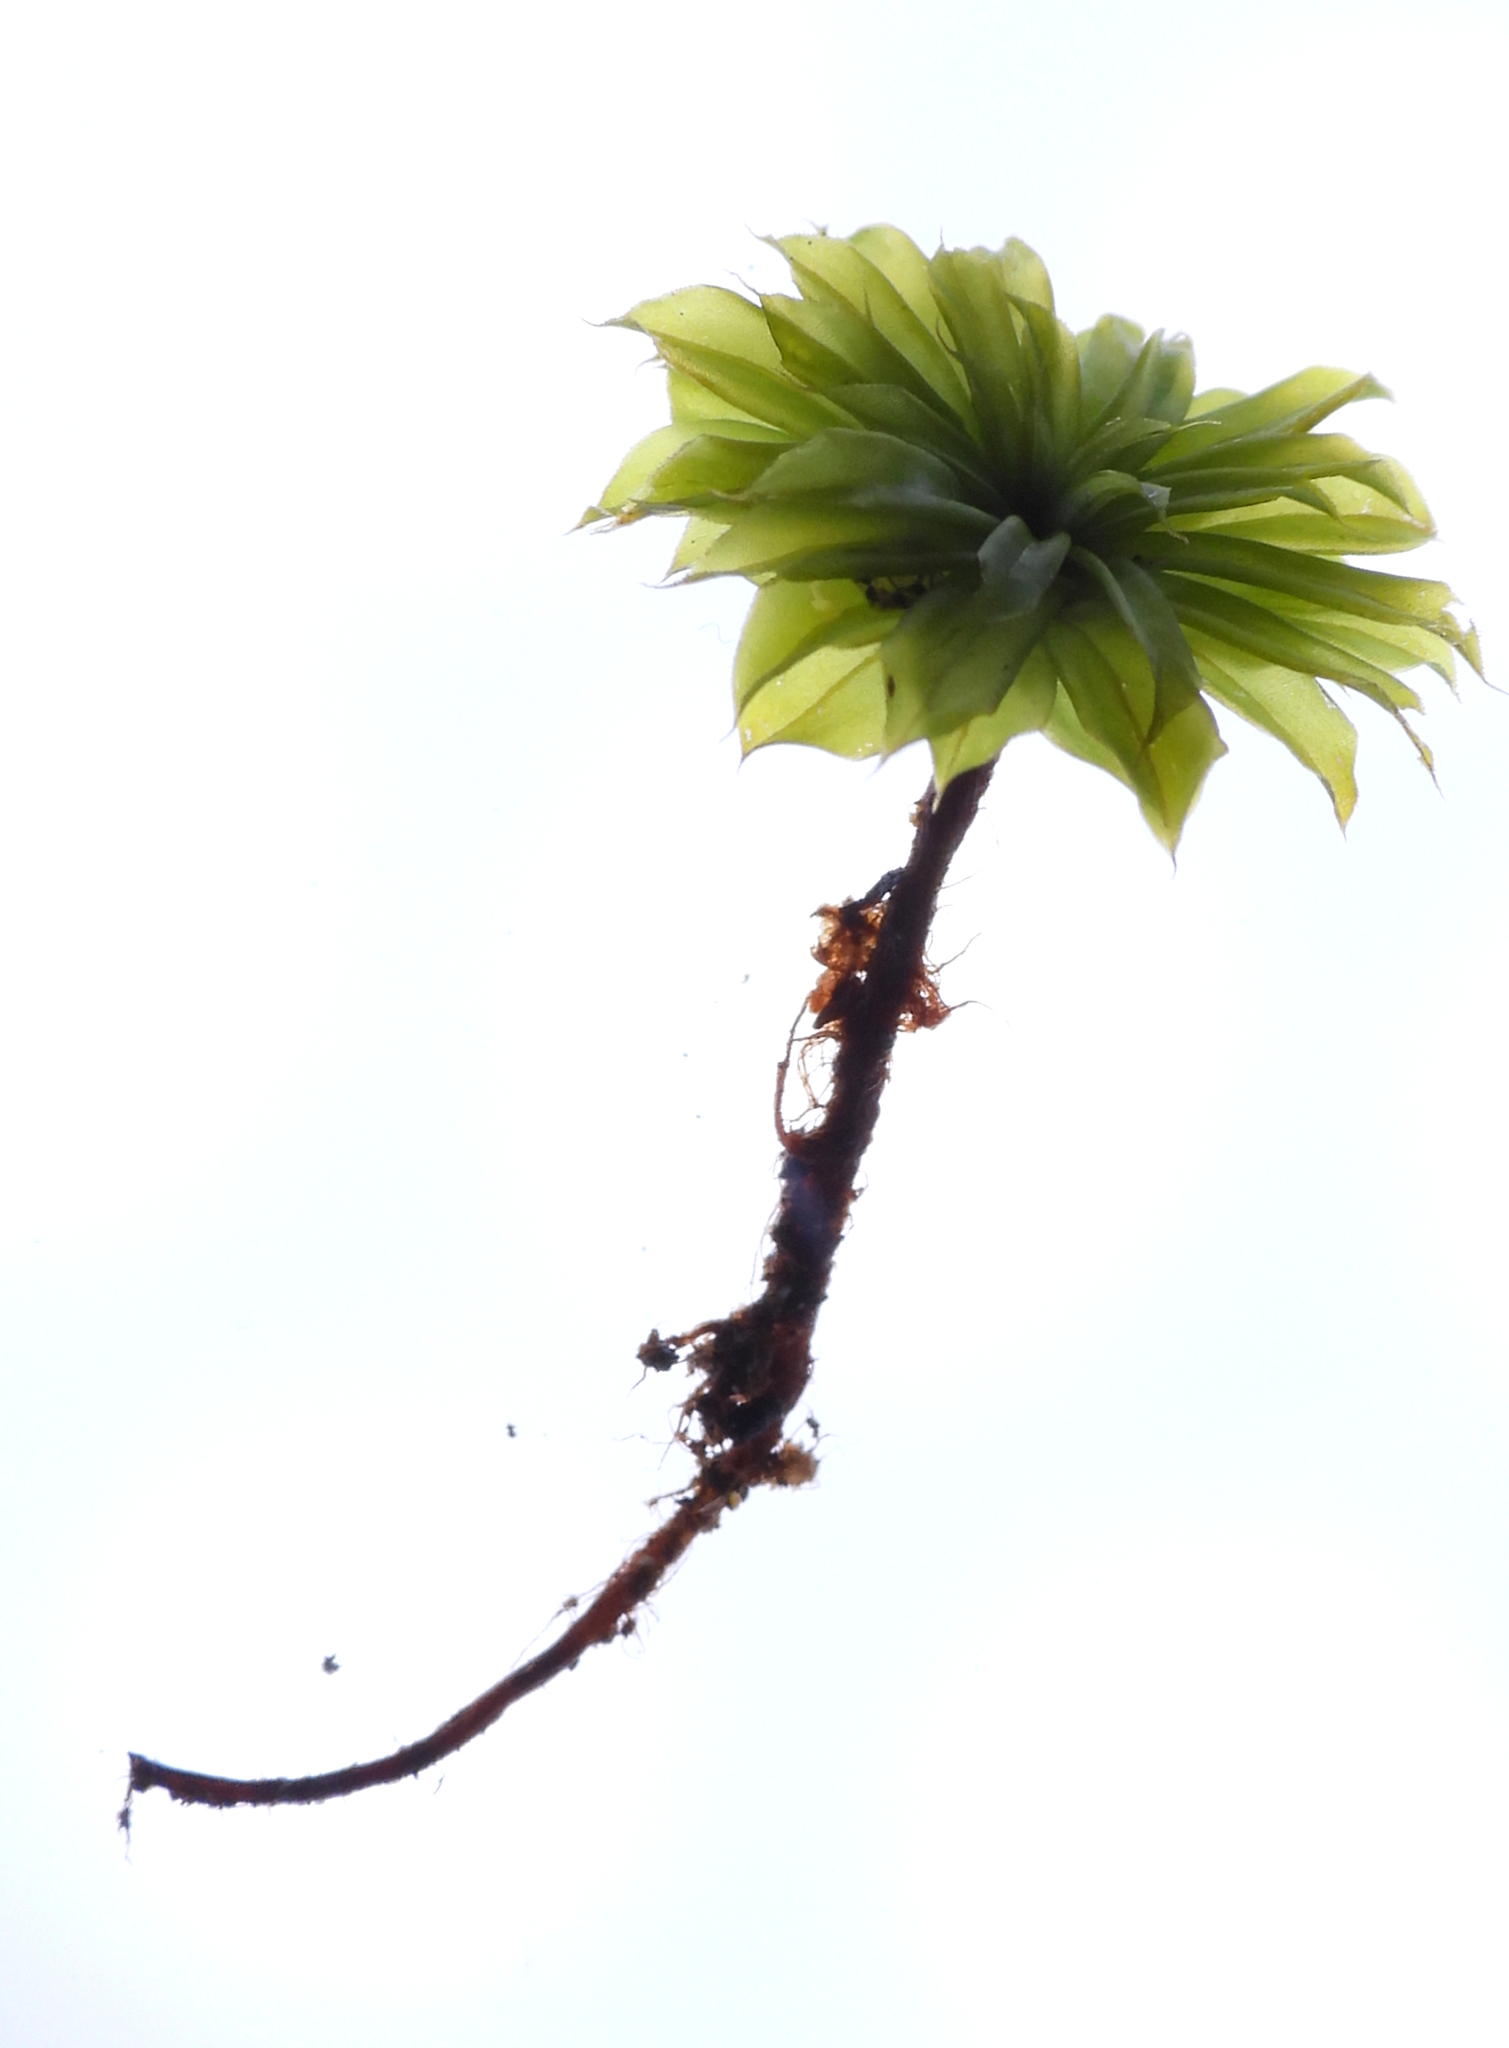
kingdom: Plantae
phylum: Bryophyta
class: Bryopsida
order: Bryales
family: Bryaceae
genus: Rhodobryum
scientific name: Rhodobryum ontariense
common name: Ontario rhodobryum moss
